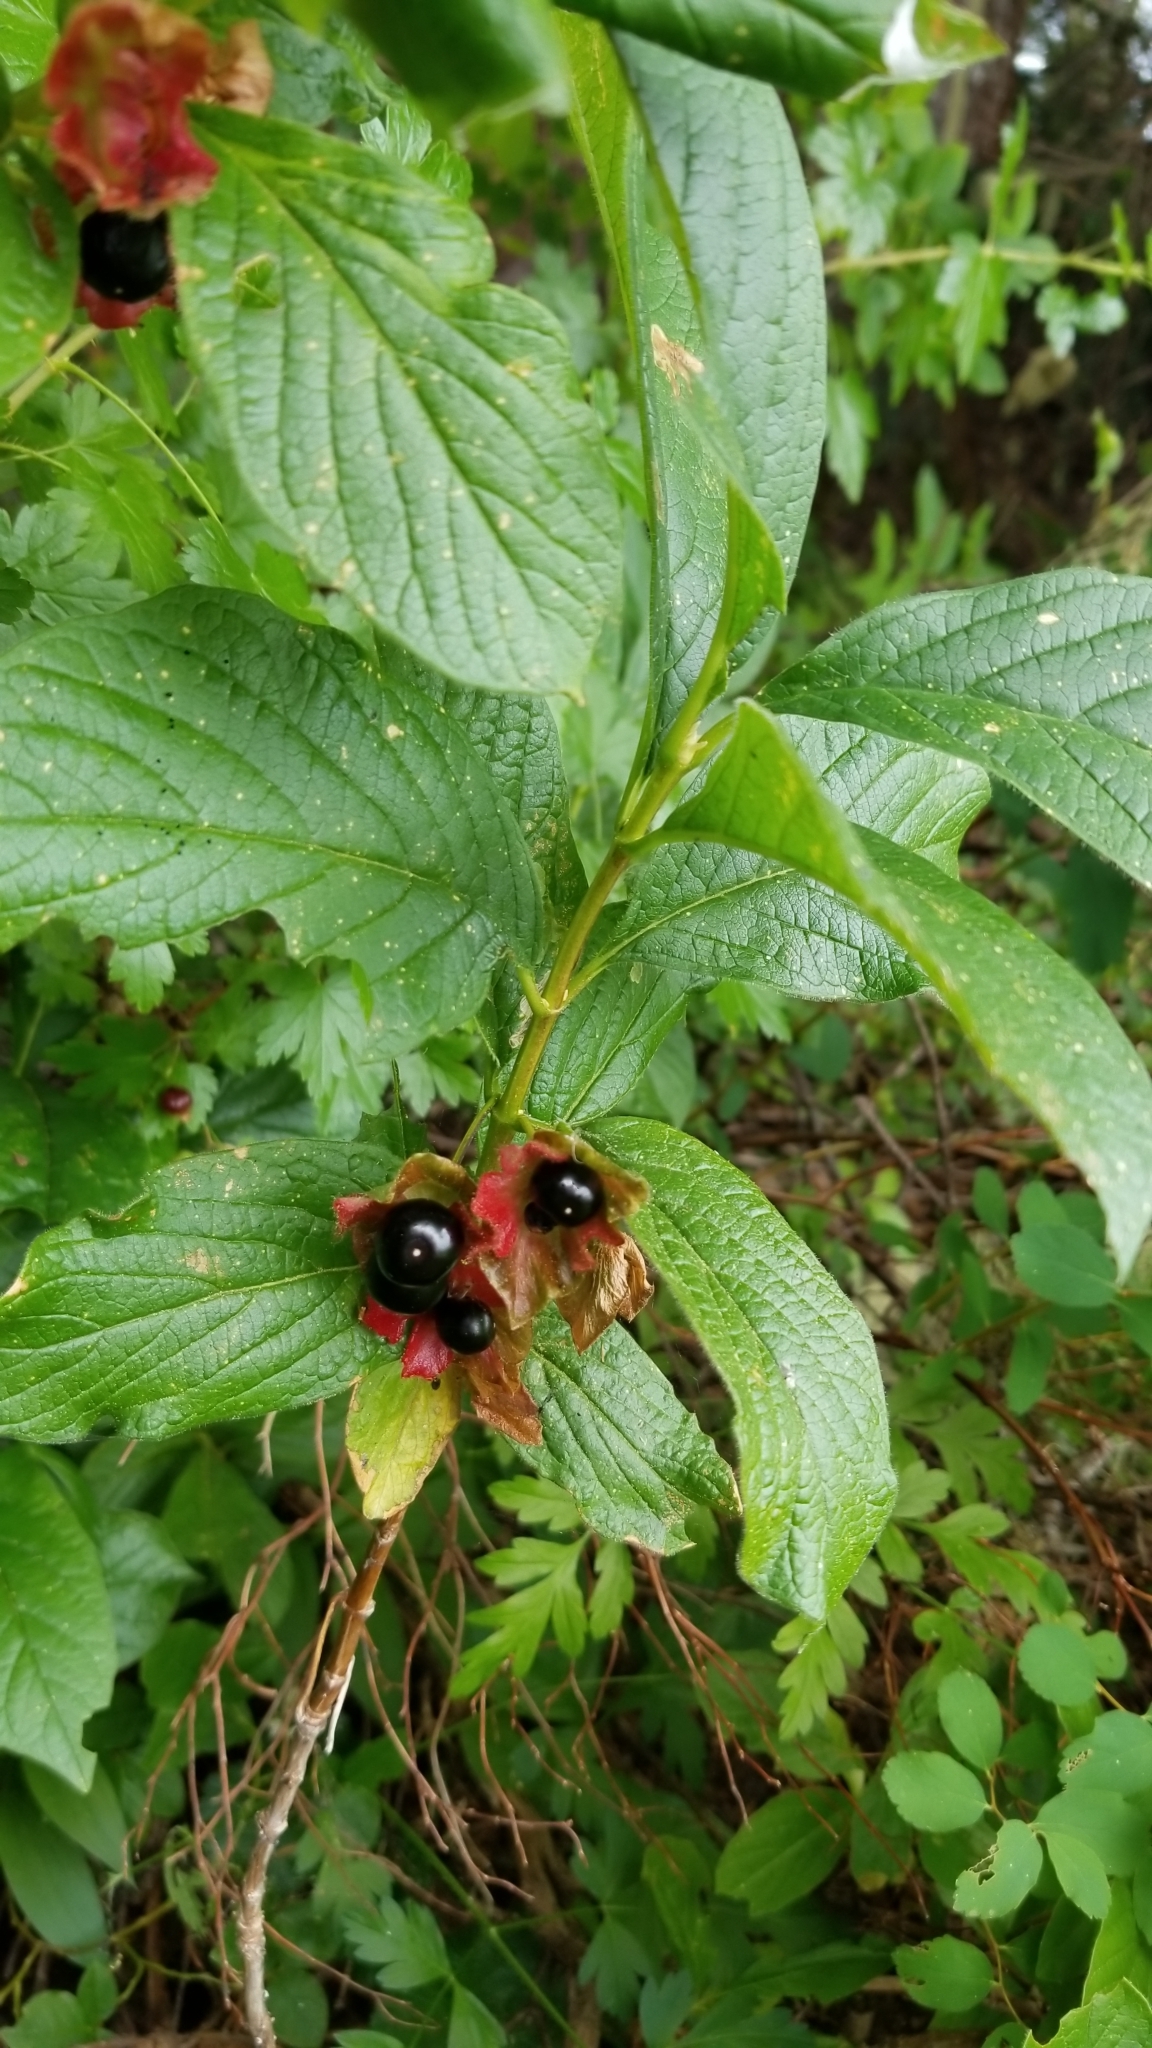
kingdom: Plantae
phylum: Tracheophyta
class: Magnoliopsida
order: Dipsacales
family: Caprifoliaceae
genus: Lonicera
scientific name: Lonicera involucrata
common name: Californian honeysuckle
